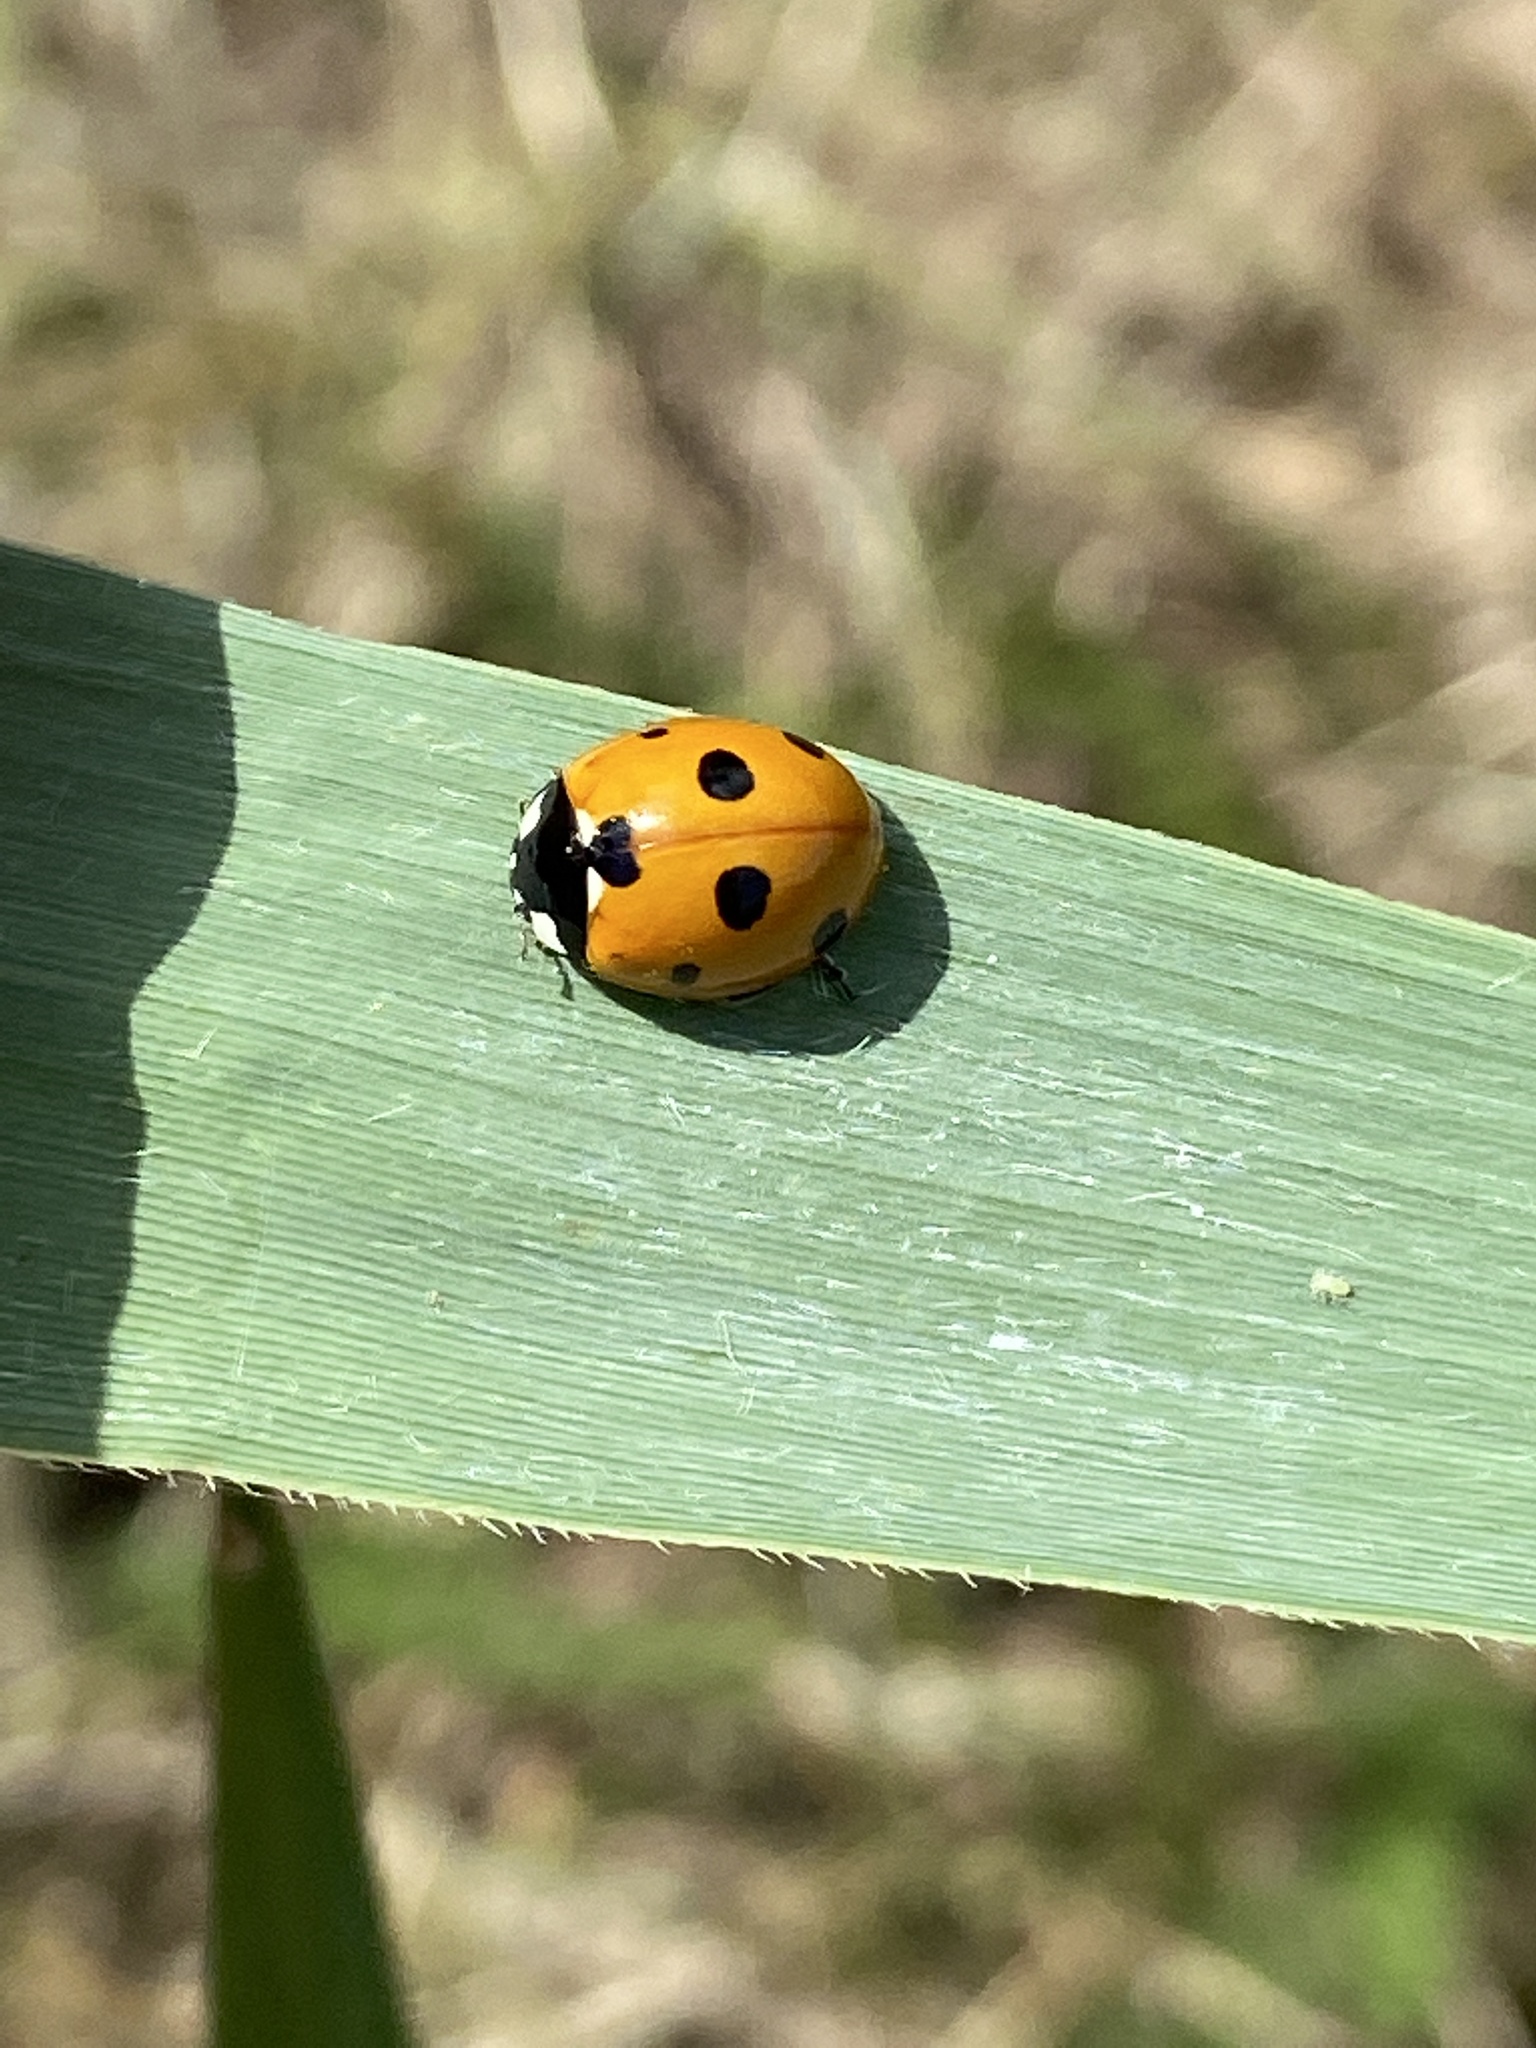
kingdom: Animalia
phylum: Arthropoda
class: Insecta
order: Coleoptera
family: Coccinellidae
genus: Coccinella
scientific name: Coccinella septempunctata
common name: Sevenspotted lady beetle
